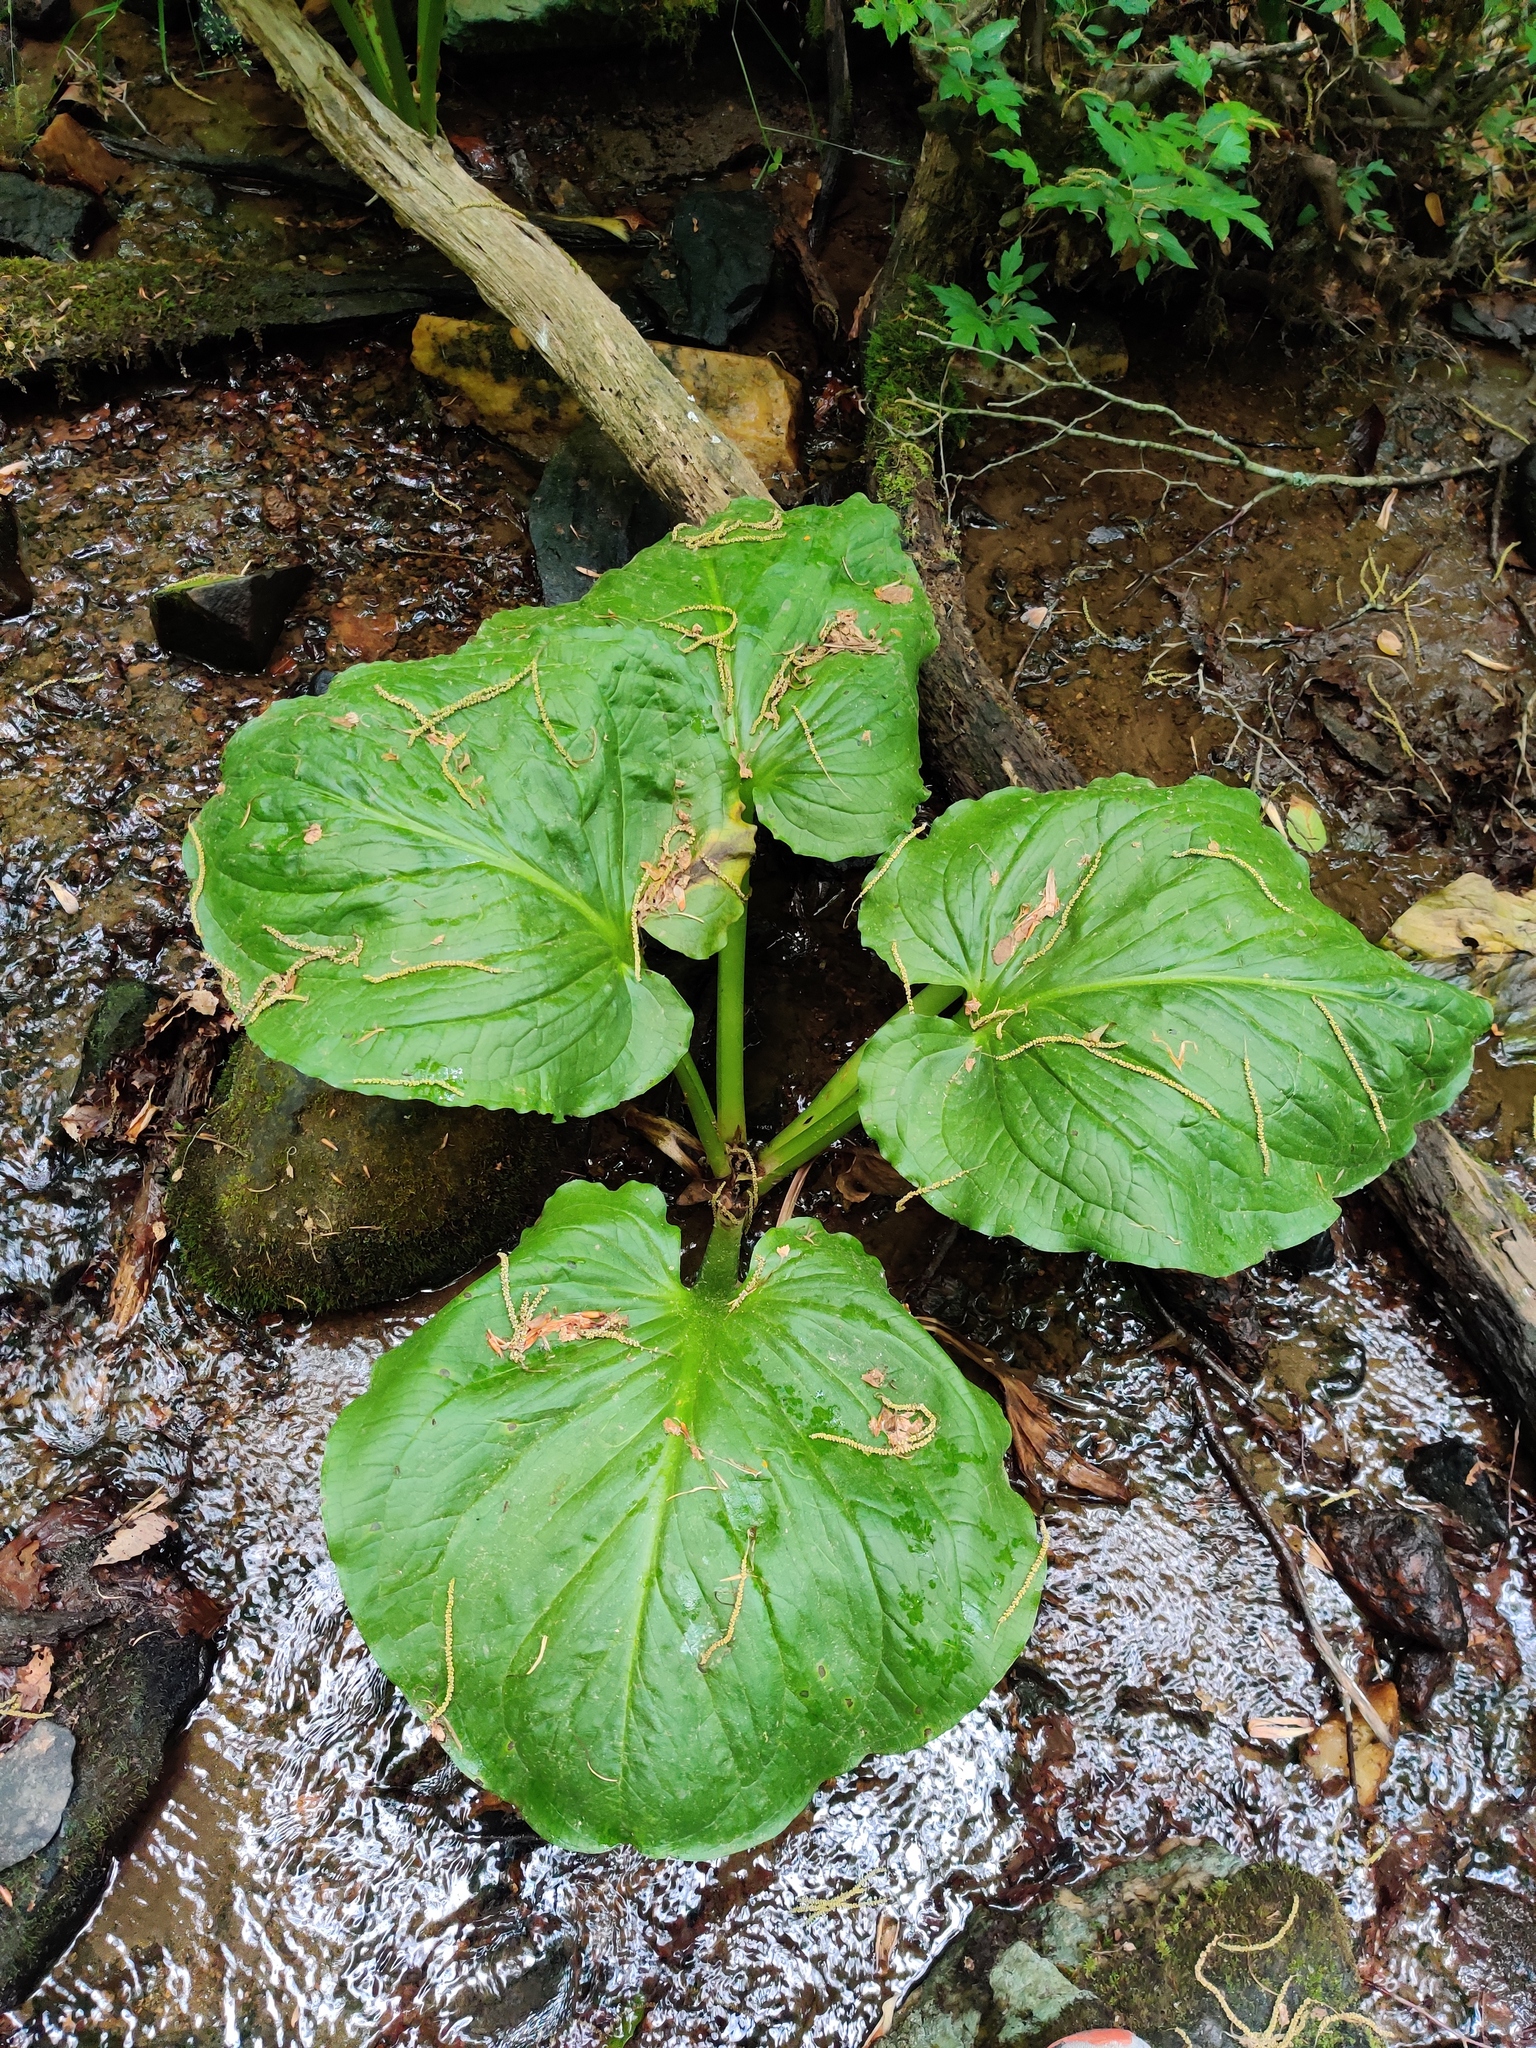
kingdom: Plantae
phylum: Tracheophyta
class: Liliopsida
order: Alismatales
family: Araceae
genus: Symplocarpus
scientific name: Symplocarpus foetidus
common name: Eastern skunk cabbage
